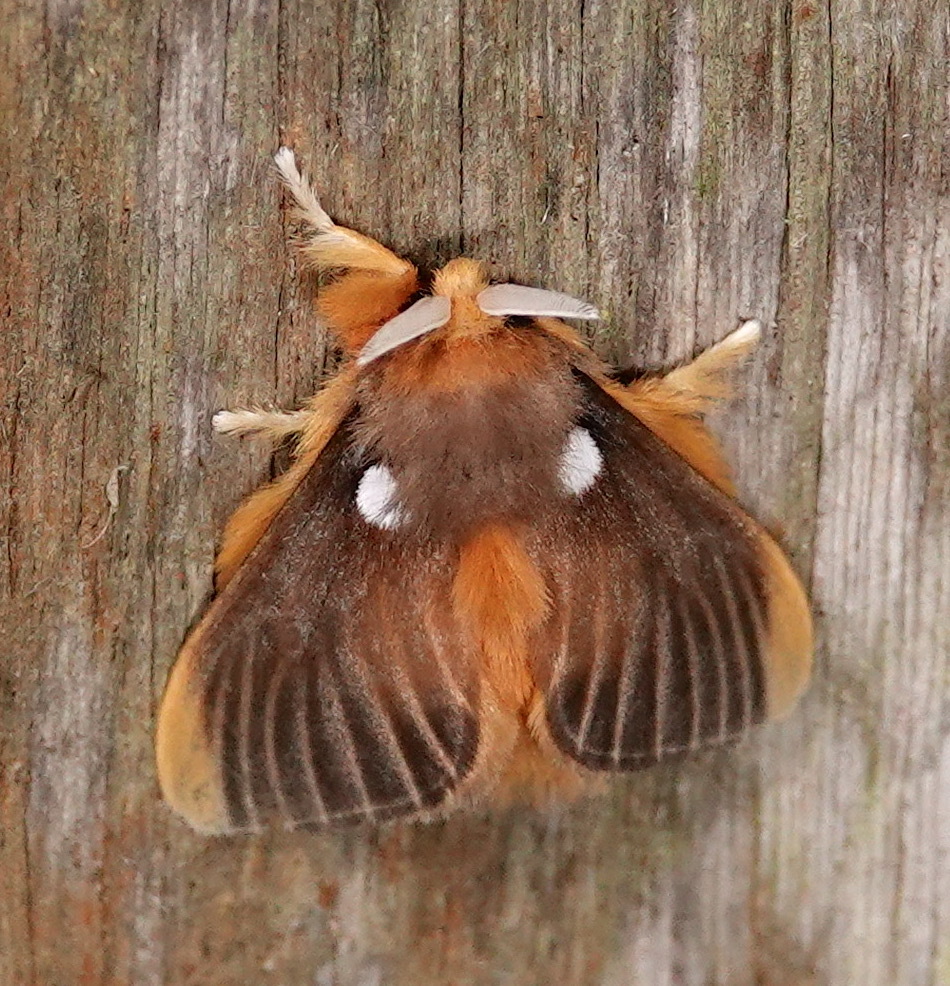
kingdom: Animalia
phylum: Arthropoda
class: Insecta
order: Lepidoptera
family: Megalopygidae
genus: Megalopyge
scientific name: Megalopyge basalis
